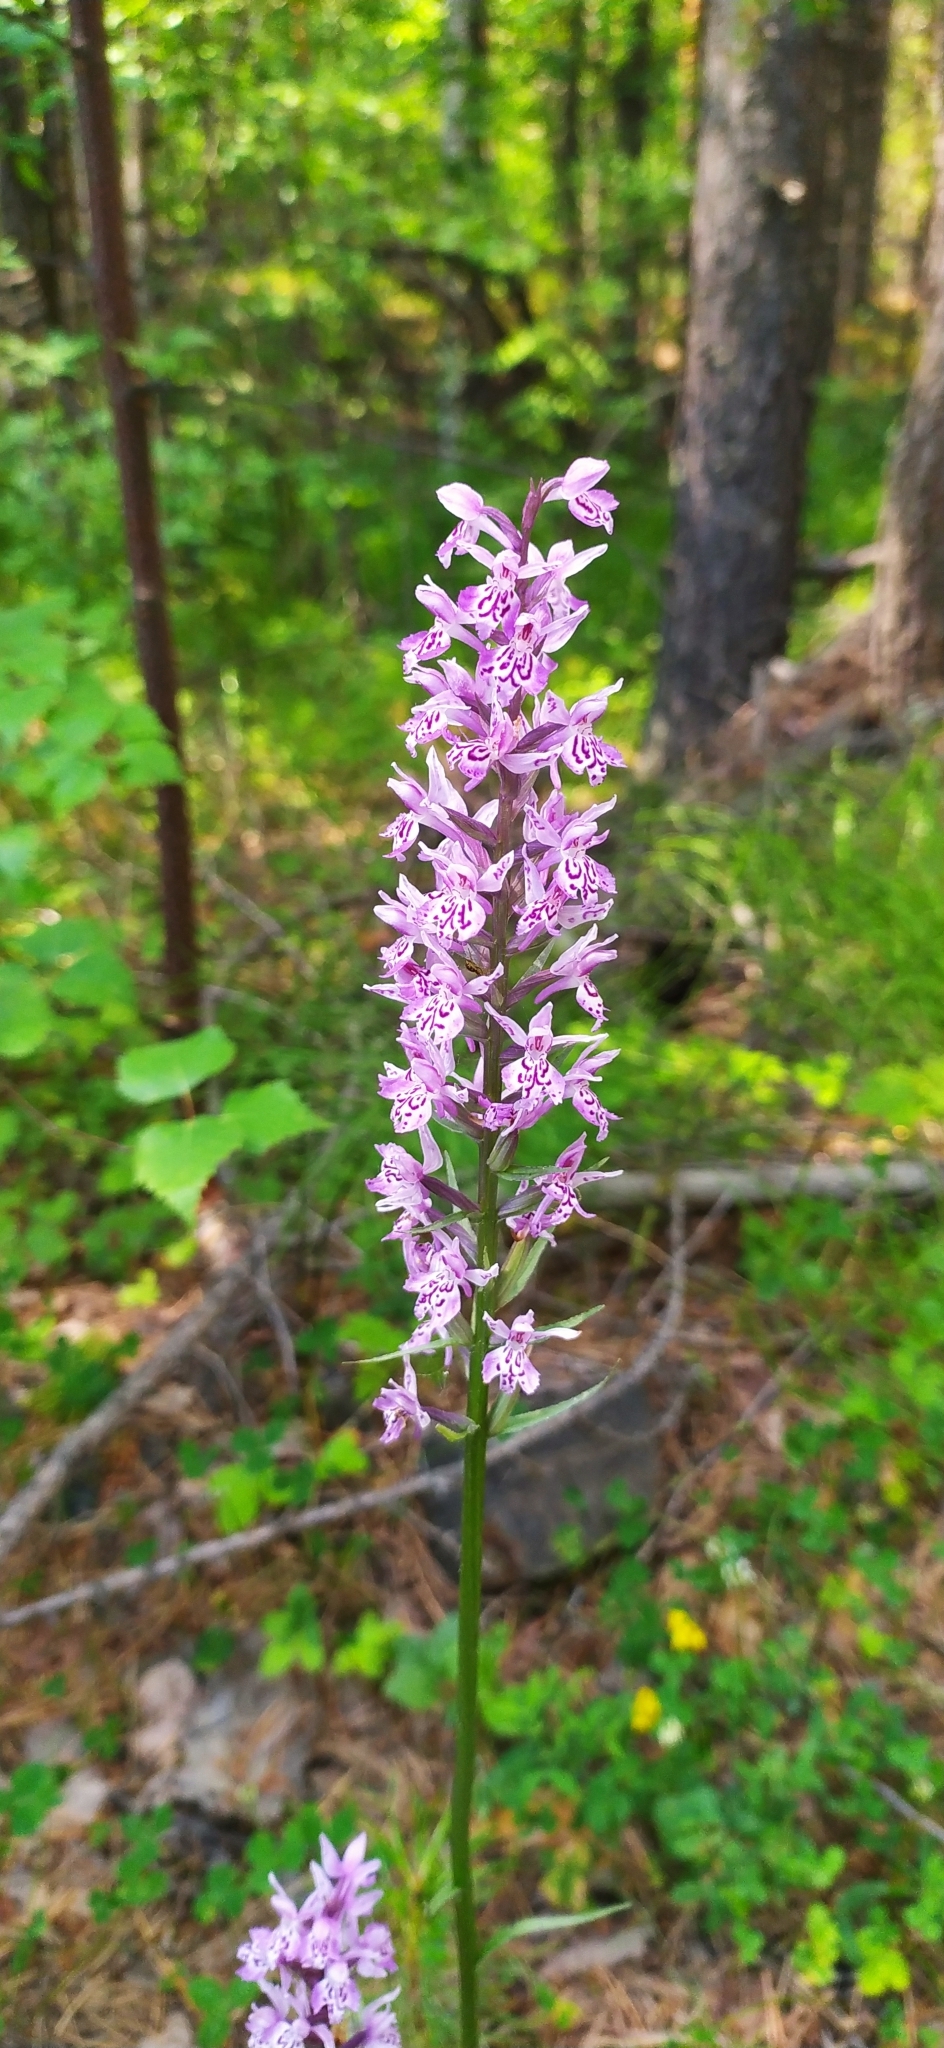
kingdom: Plantae
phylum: Tracheophyta
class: Liliopsida
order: Asparagales
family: Orchidaceae
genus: Dactylorhiza
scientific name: Dactylorhiza maculata
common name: Heath spotted-orchid
